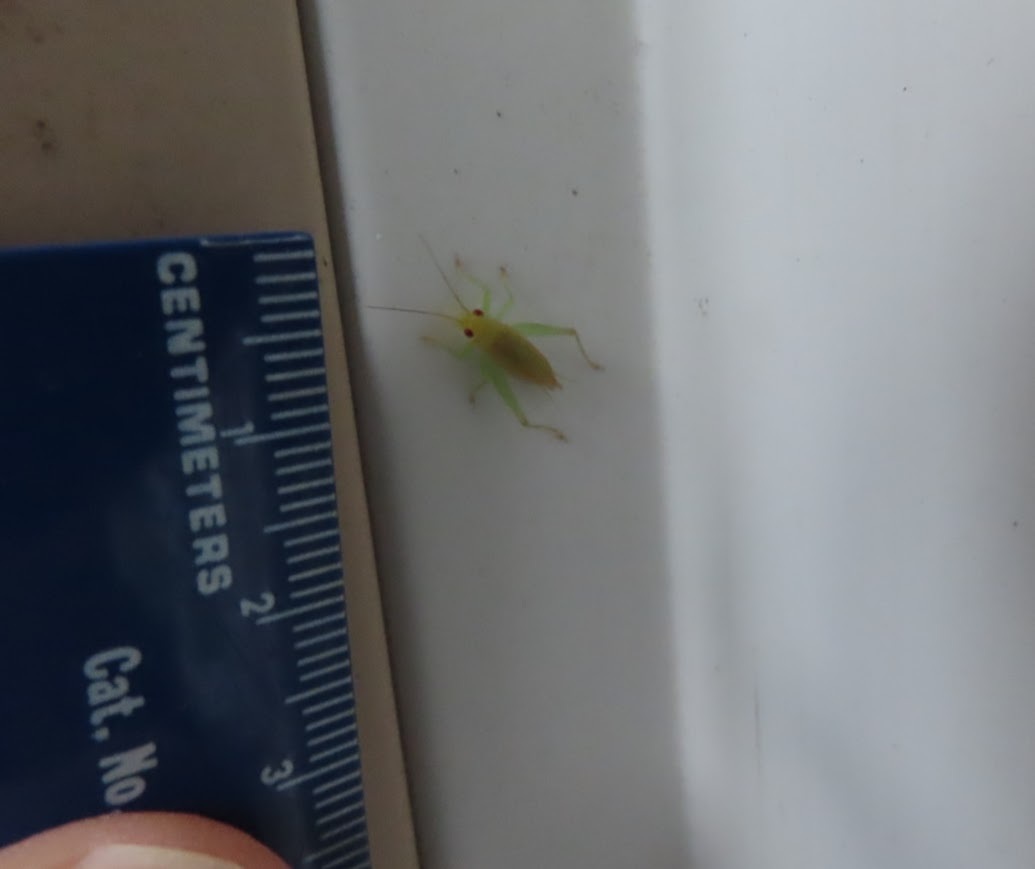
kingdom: Animalia
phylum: Arthropoda
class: Insecta
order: Orthoptera
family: Trigonidiidae
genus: Cyrtoxipha
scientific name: Cyrtoxipha columbiana
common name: Columbian trig
